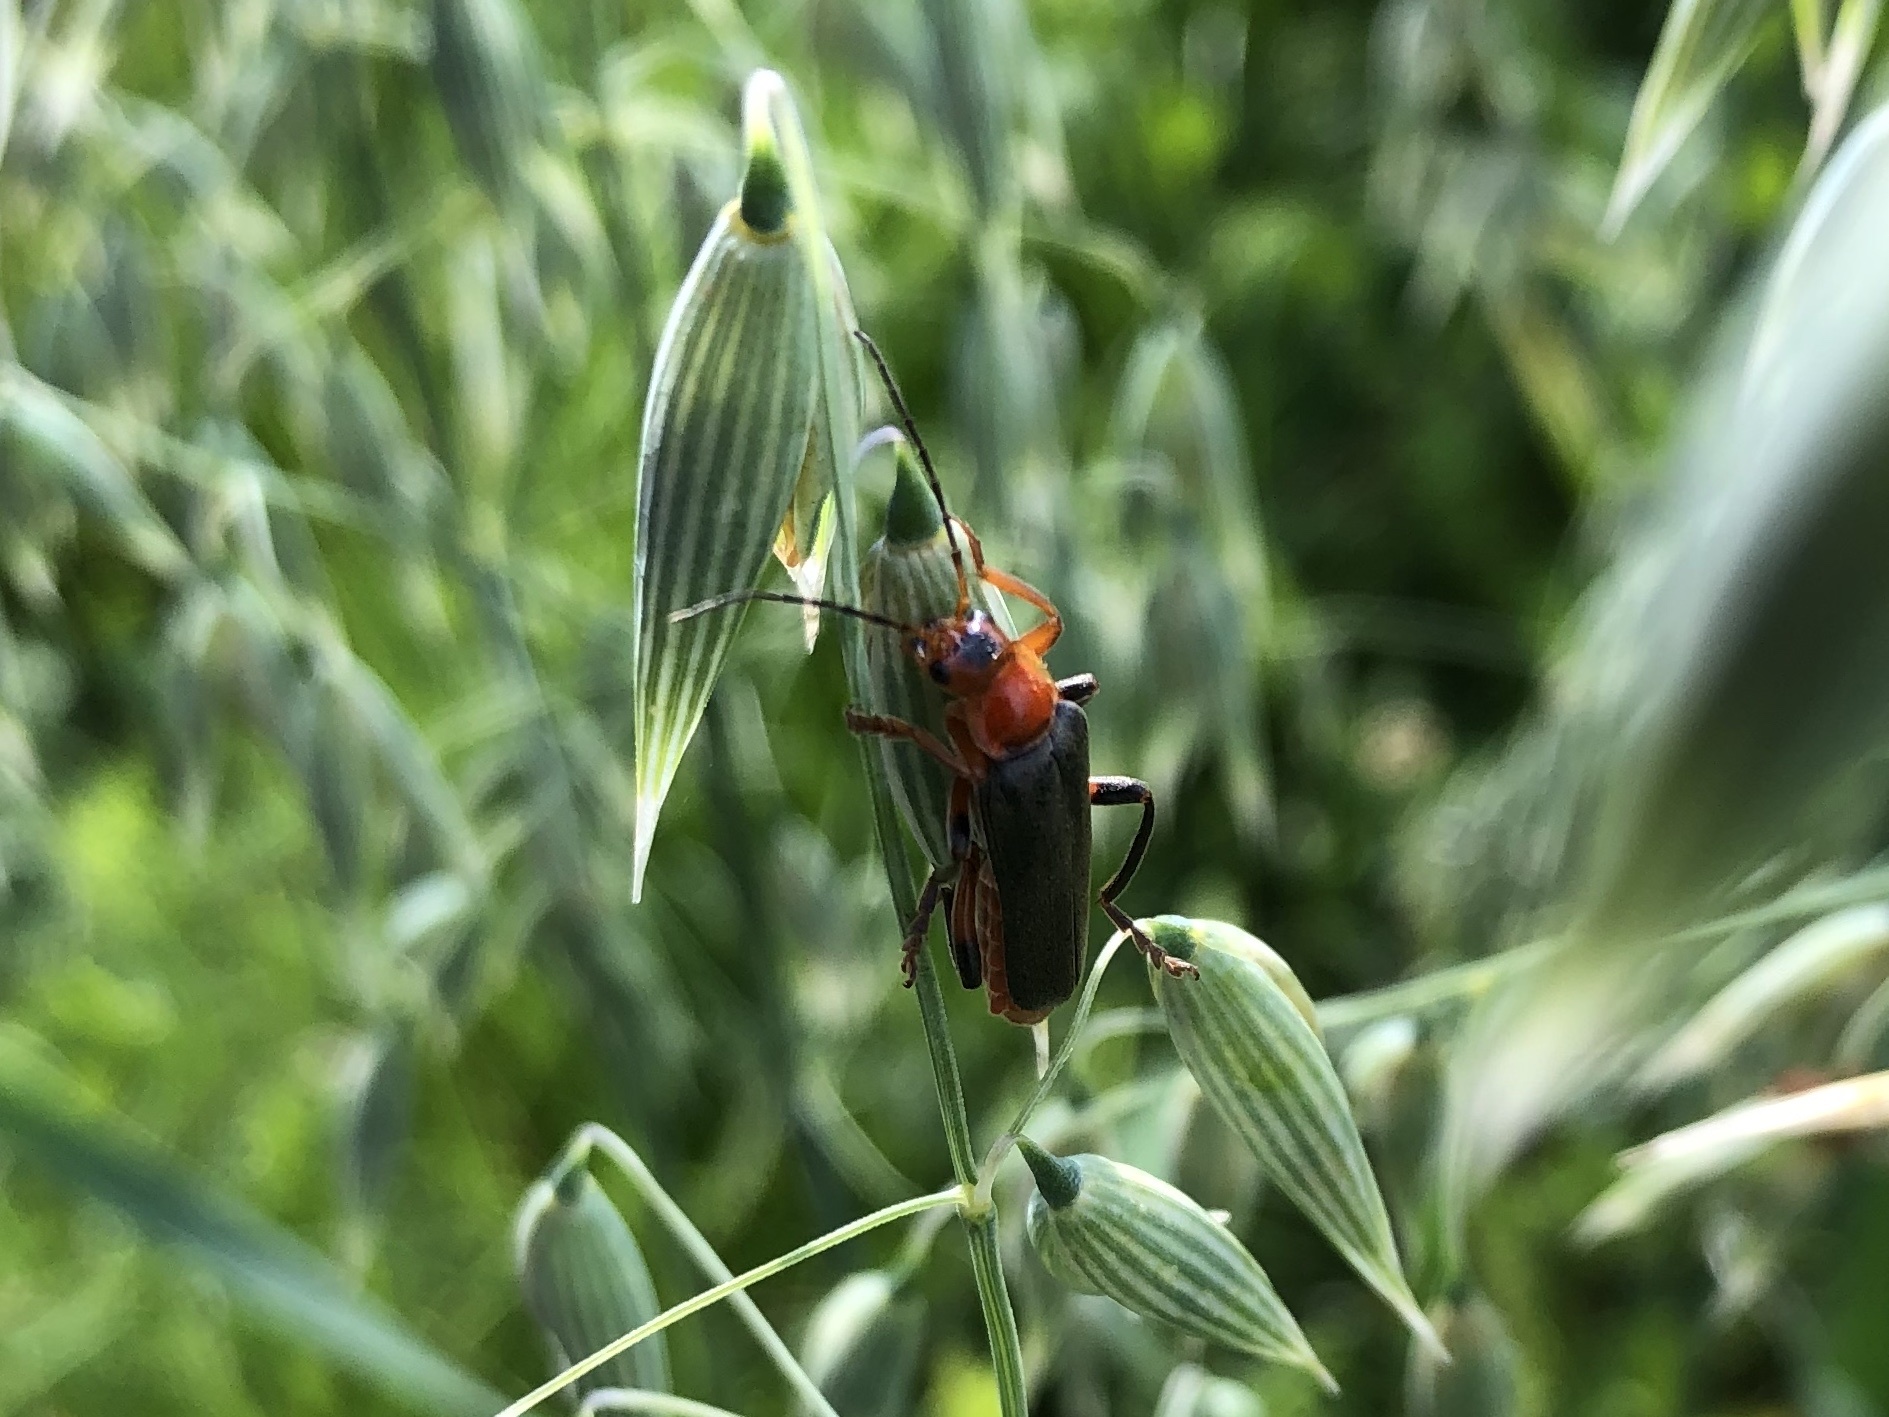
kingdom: Animalia
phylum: Arthropoda
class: Insecta
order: Coleoptera
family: Cantharidae
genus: Cantharis
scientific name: Cantharis livida
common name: Livid soldier beetle
